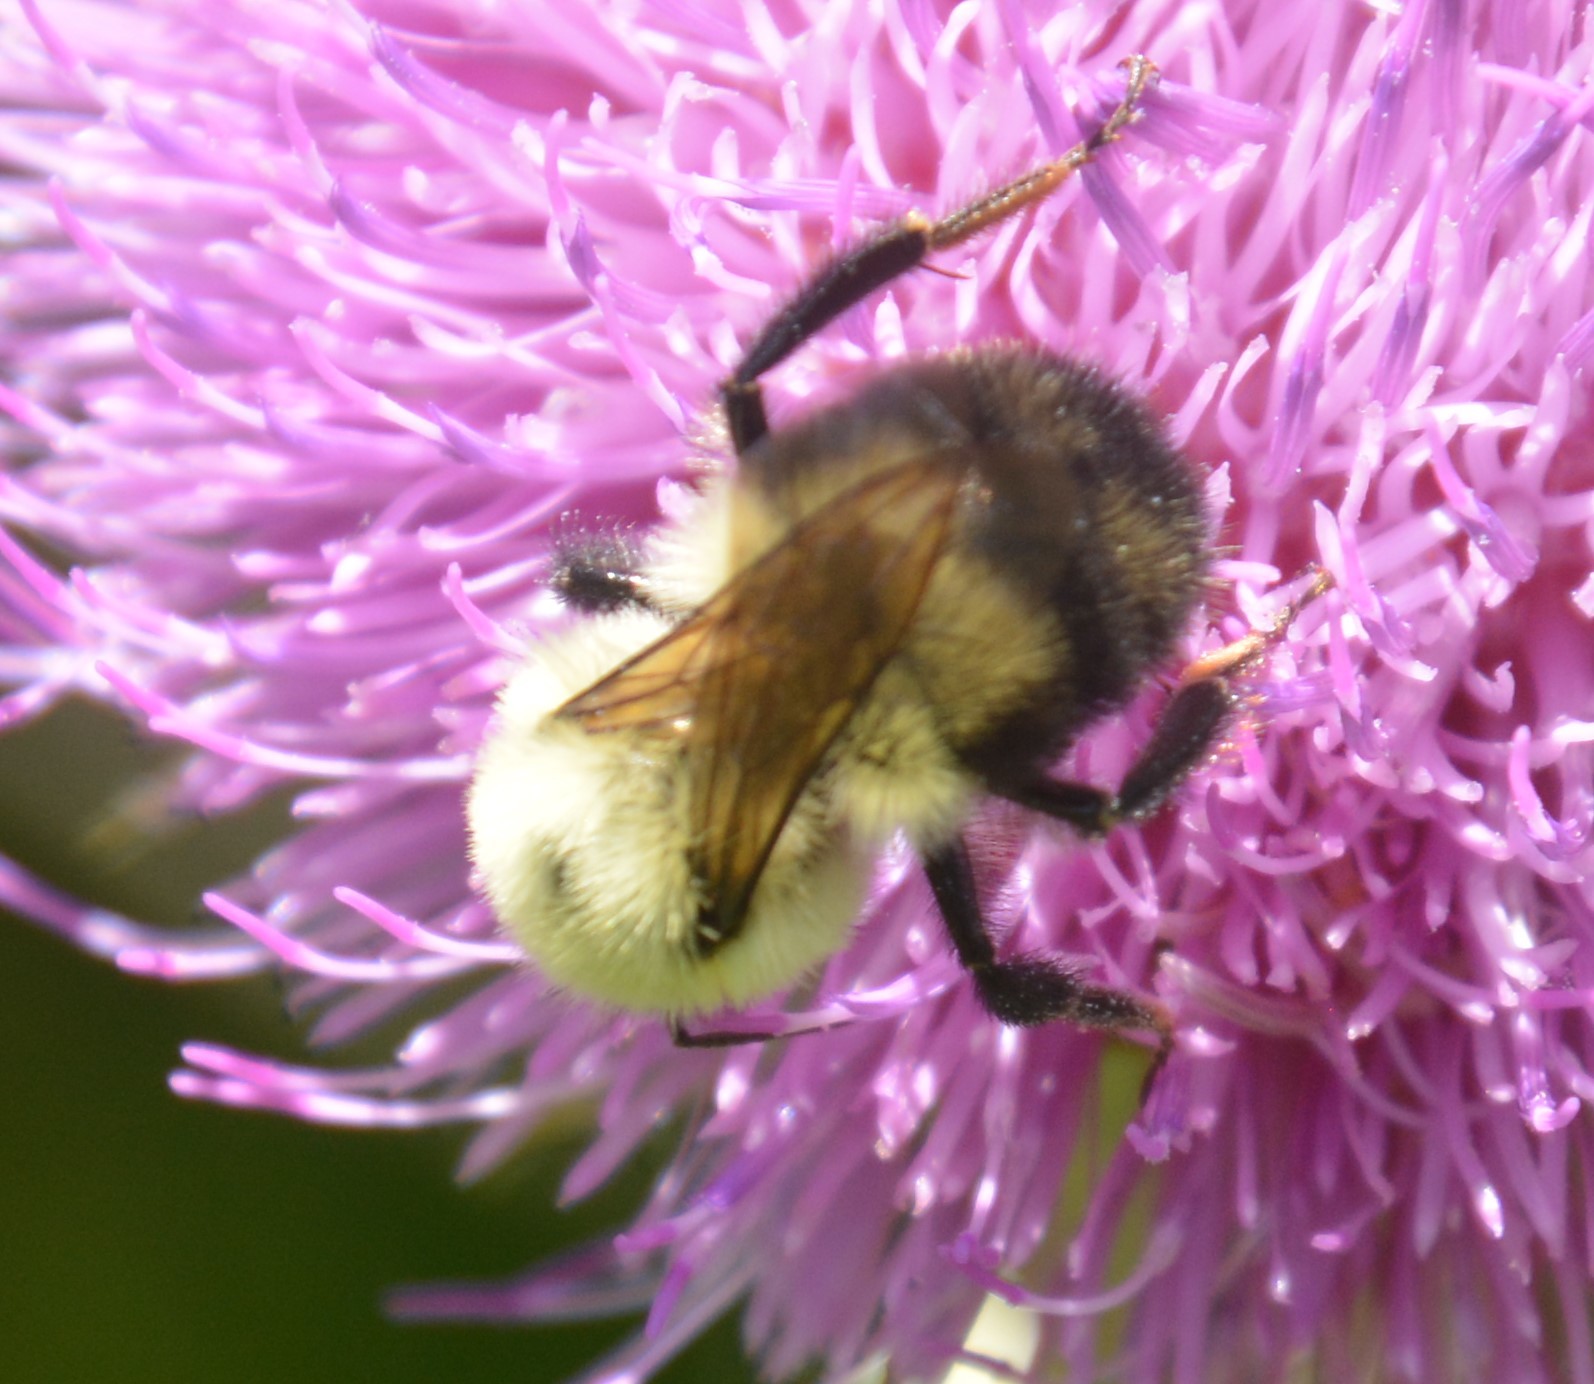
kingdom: Animalia
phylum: Arthropoda
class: Insecta
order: Hymenoptera
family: Apidae
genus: Bombus
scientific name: Bombus bimaculatus
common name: Two-spotted bumble bee
